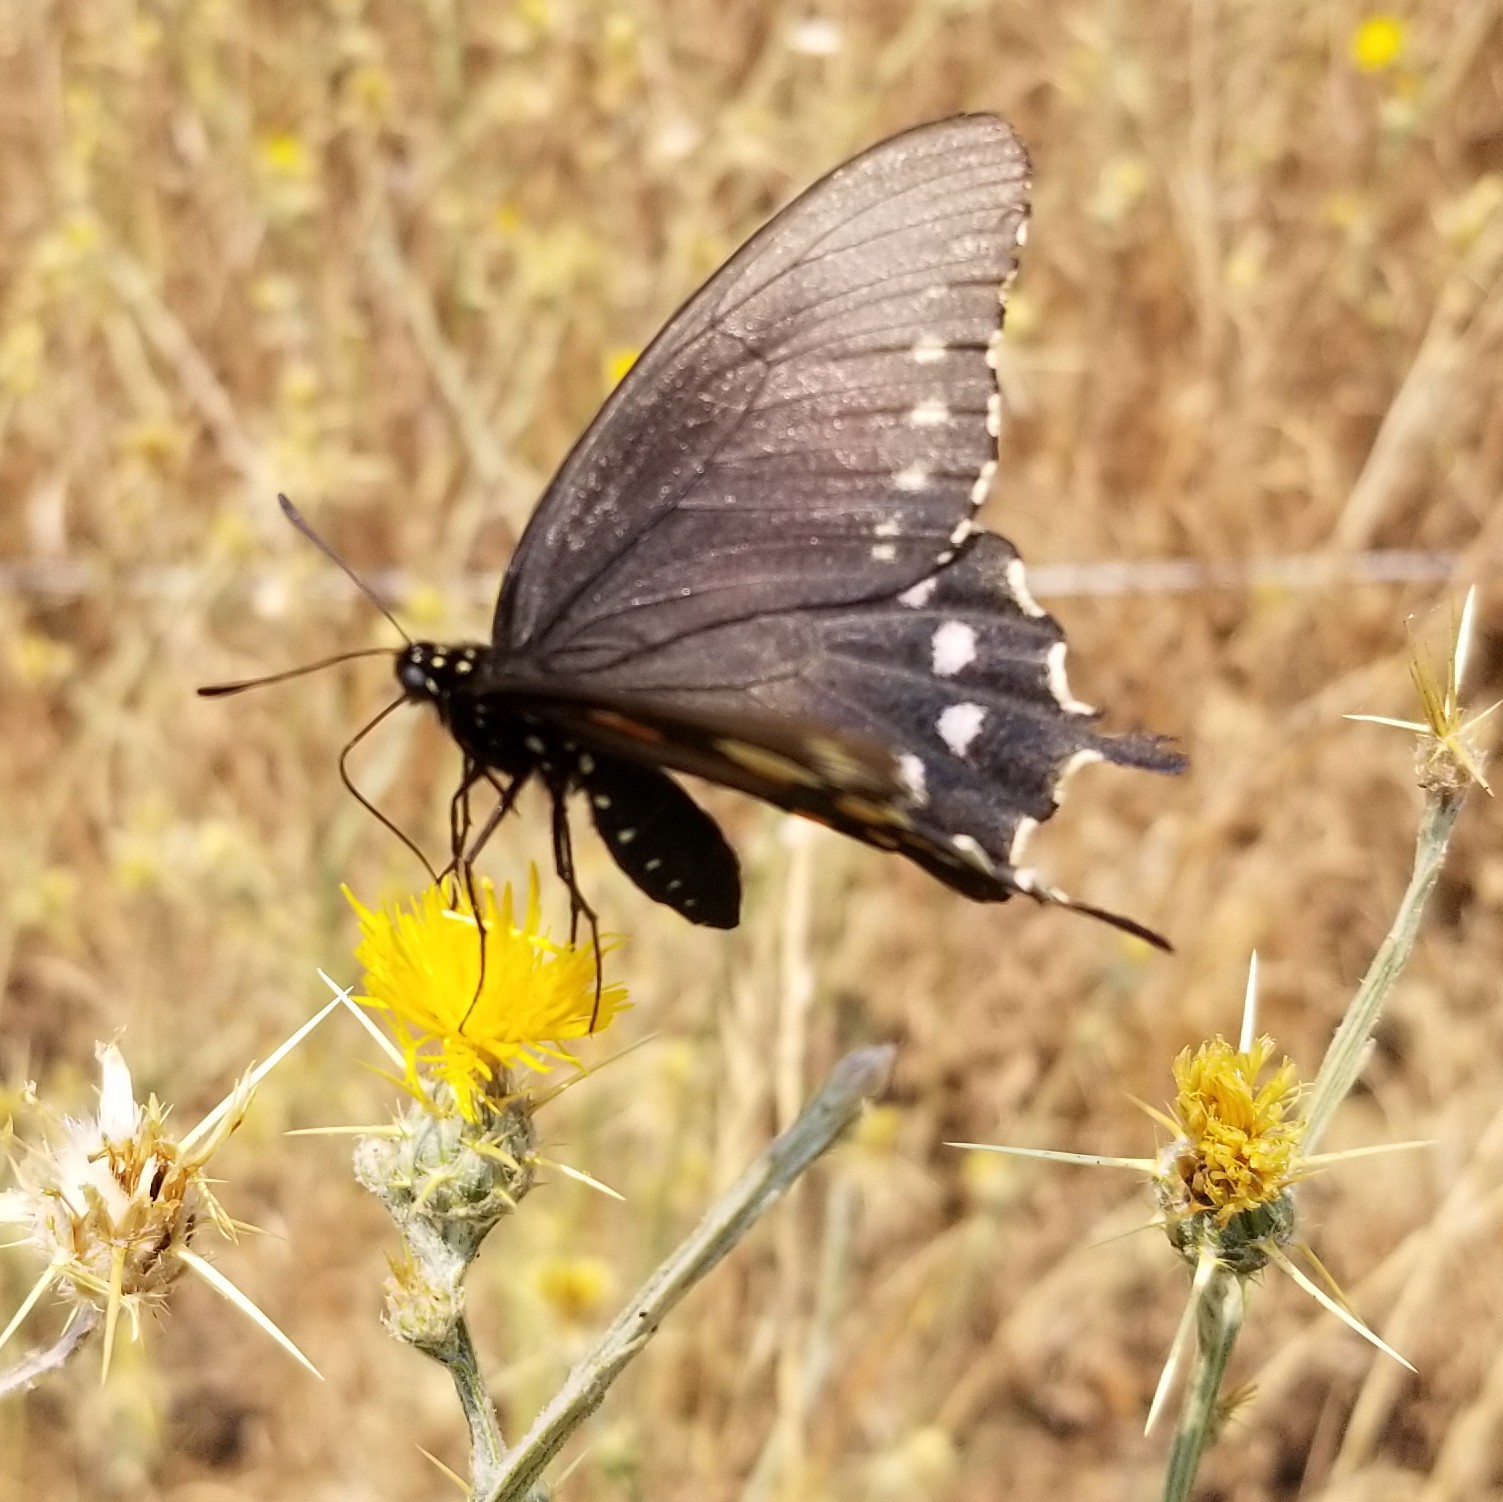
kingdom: Animalia
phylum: Arthropoda
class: Insecta
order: Lepidoptera
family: Papilionidae
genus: Battus
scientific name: Battus philenor
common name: Pipevine swallowtail
